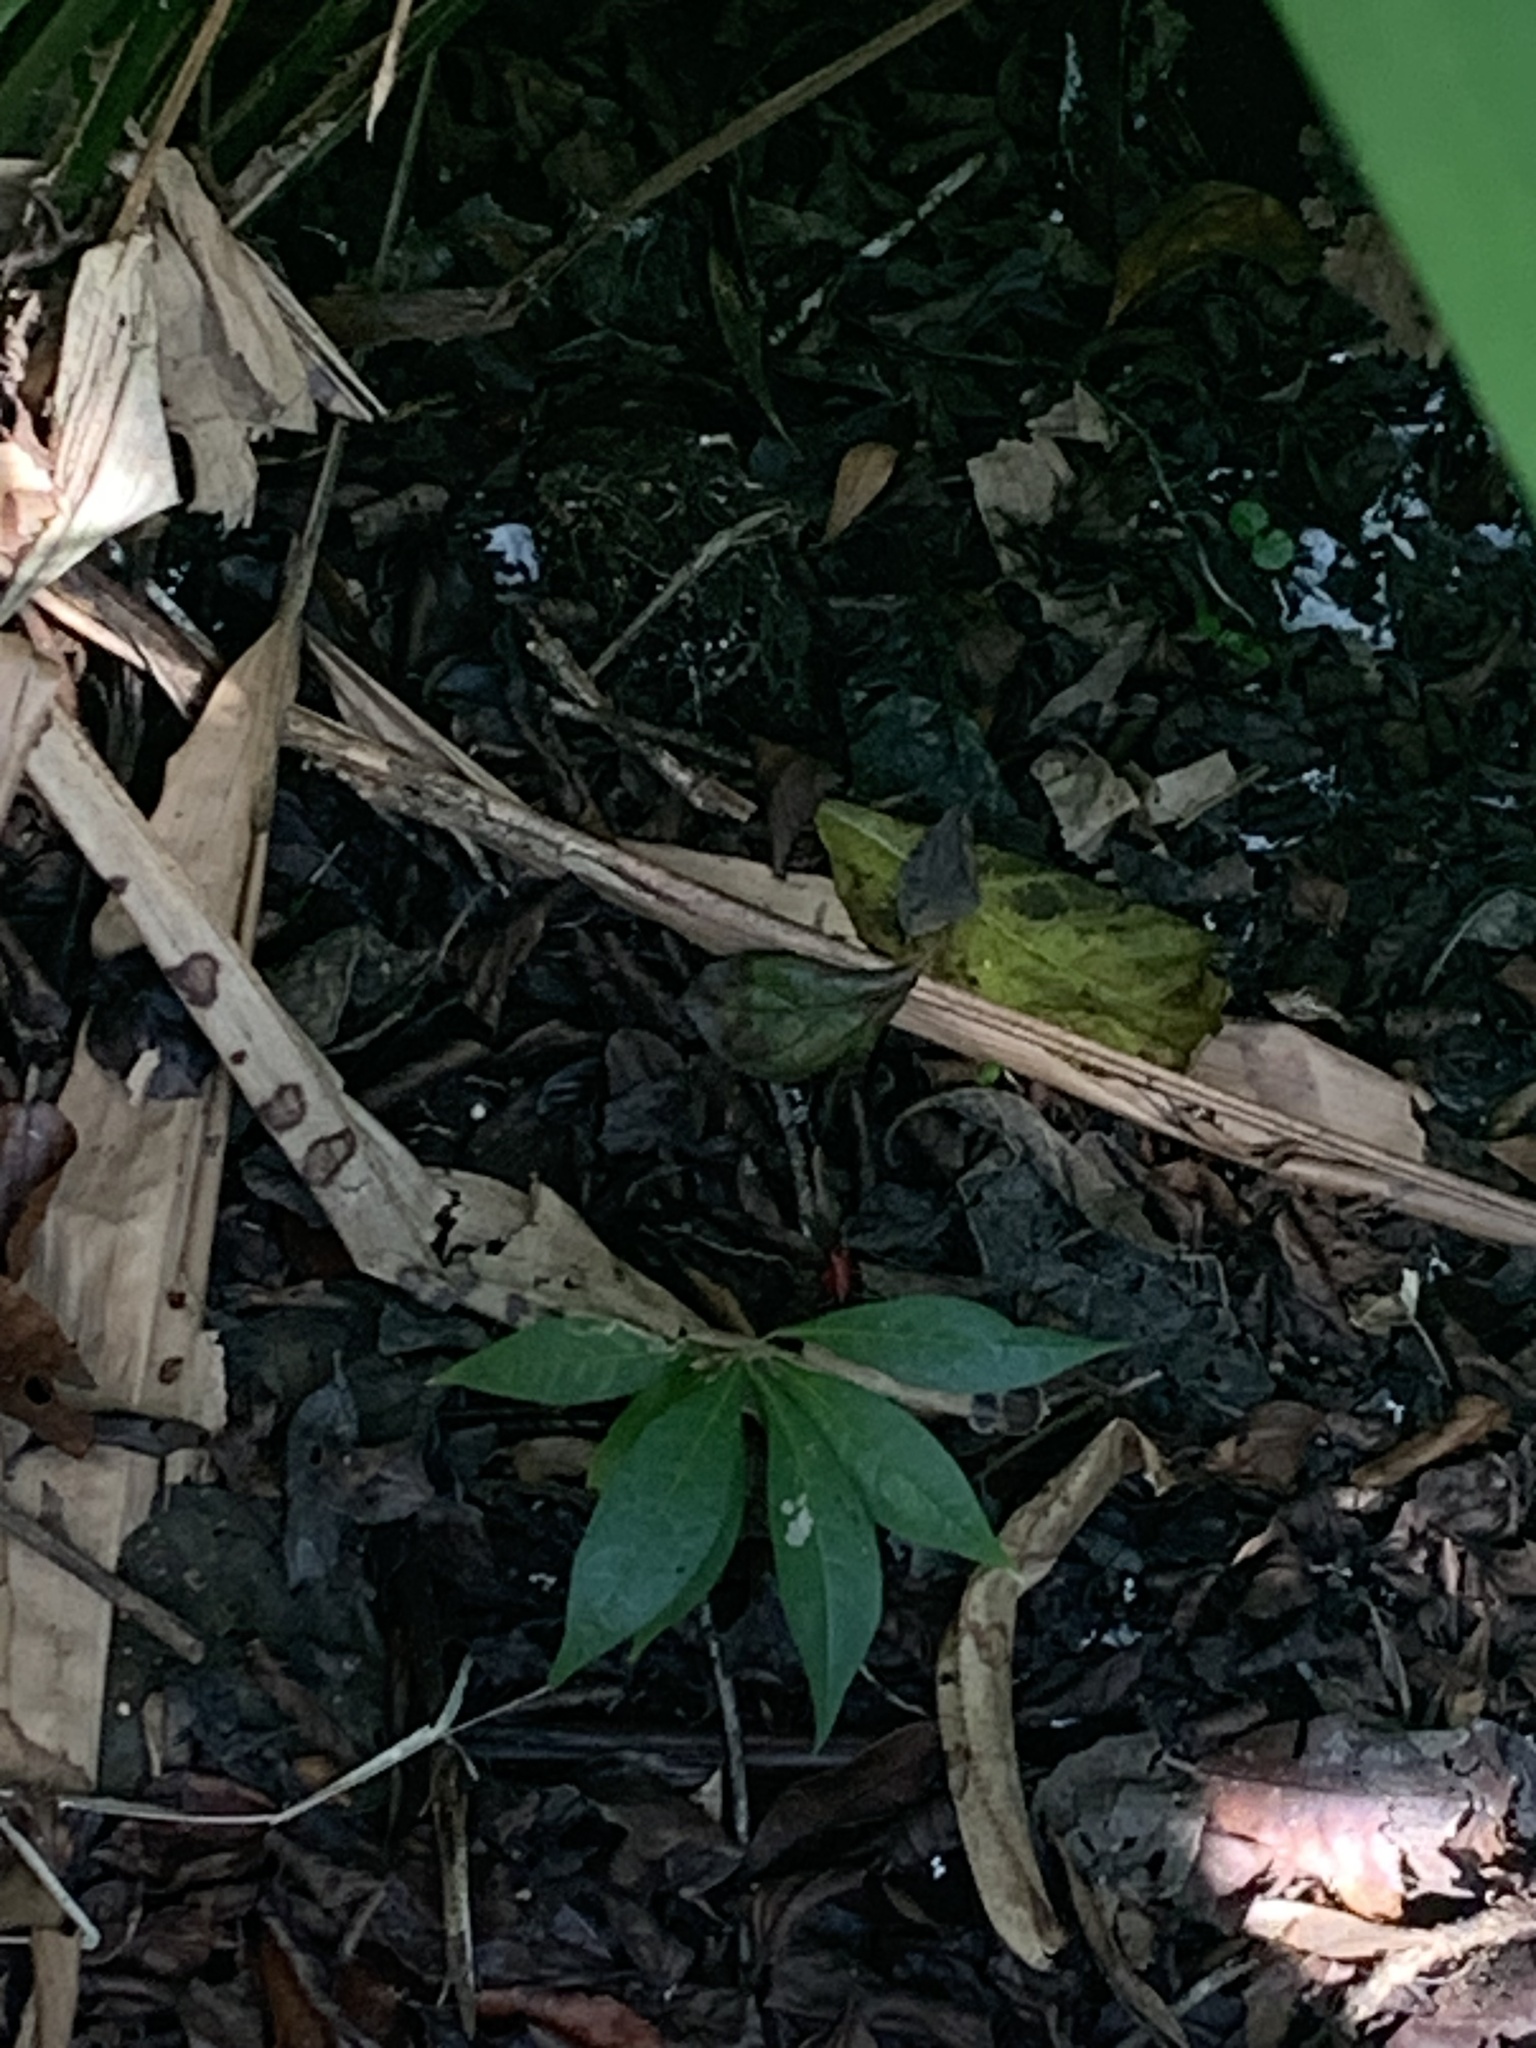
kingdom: Animalia
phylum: Chordata
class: Amphibia
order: Anura
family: Dendrobatidae
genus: Oophaga
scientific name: Oophaga pumilio
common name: Flaming poison frog
